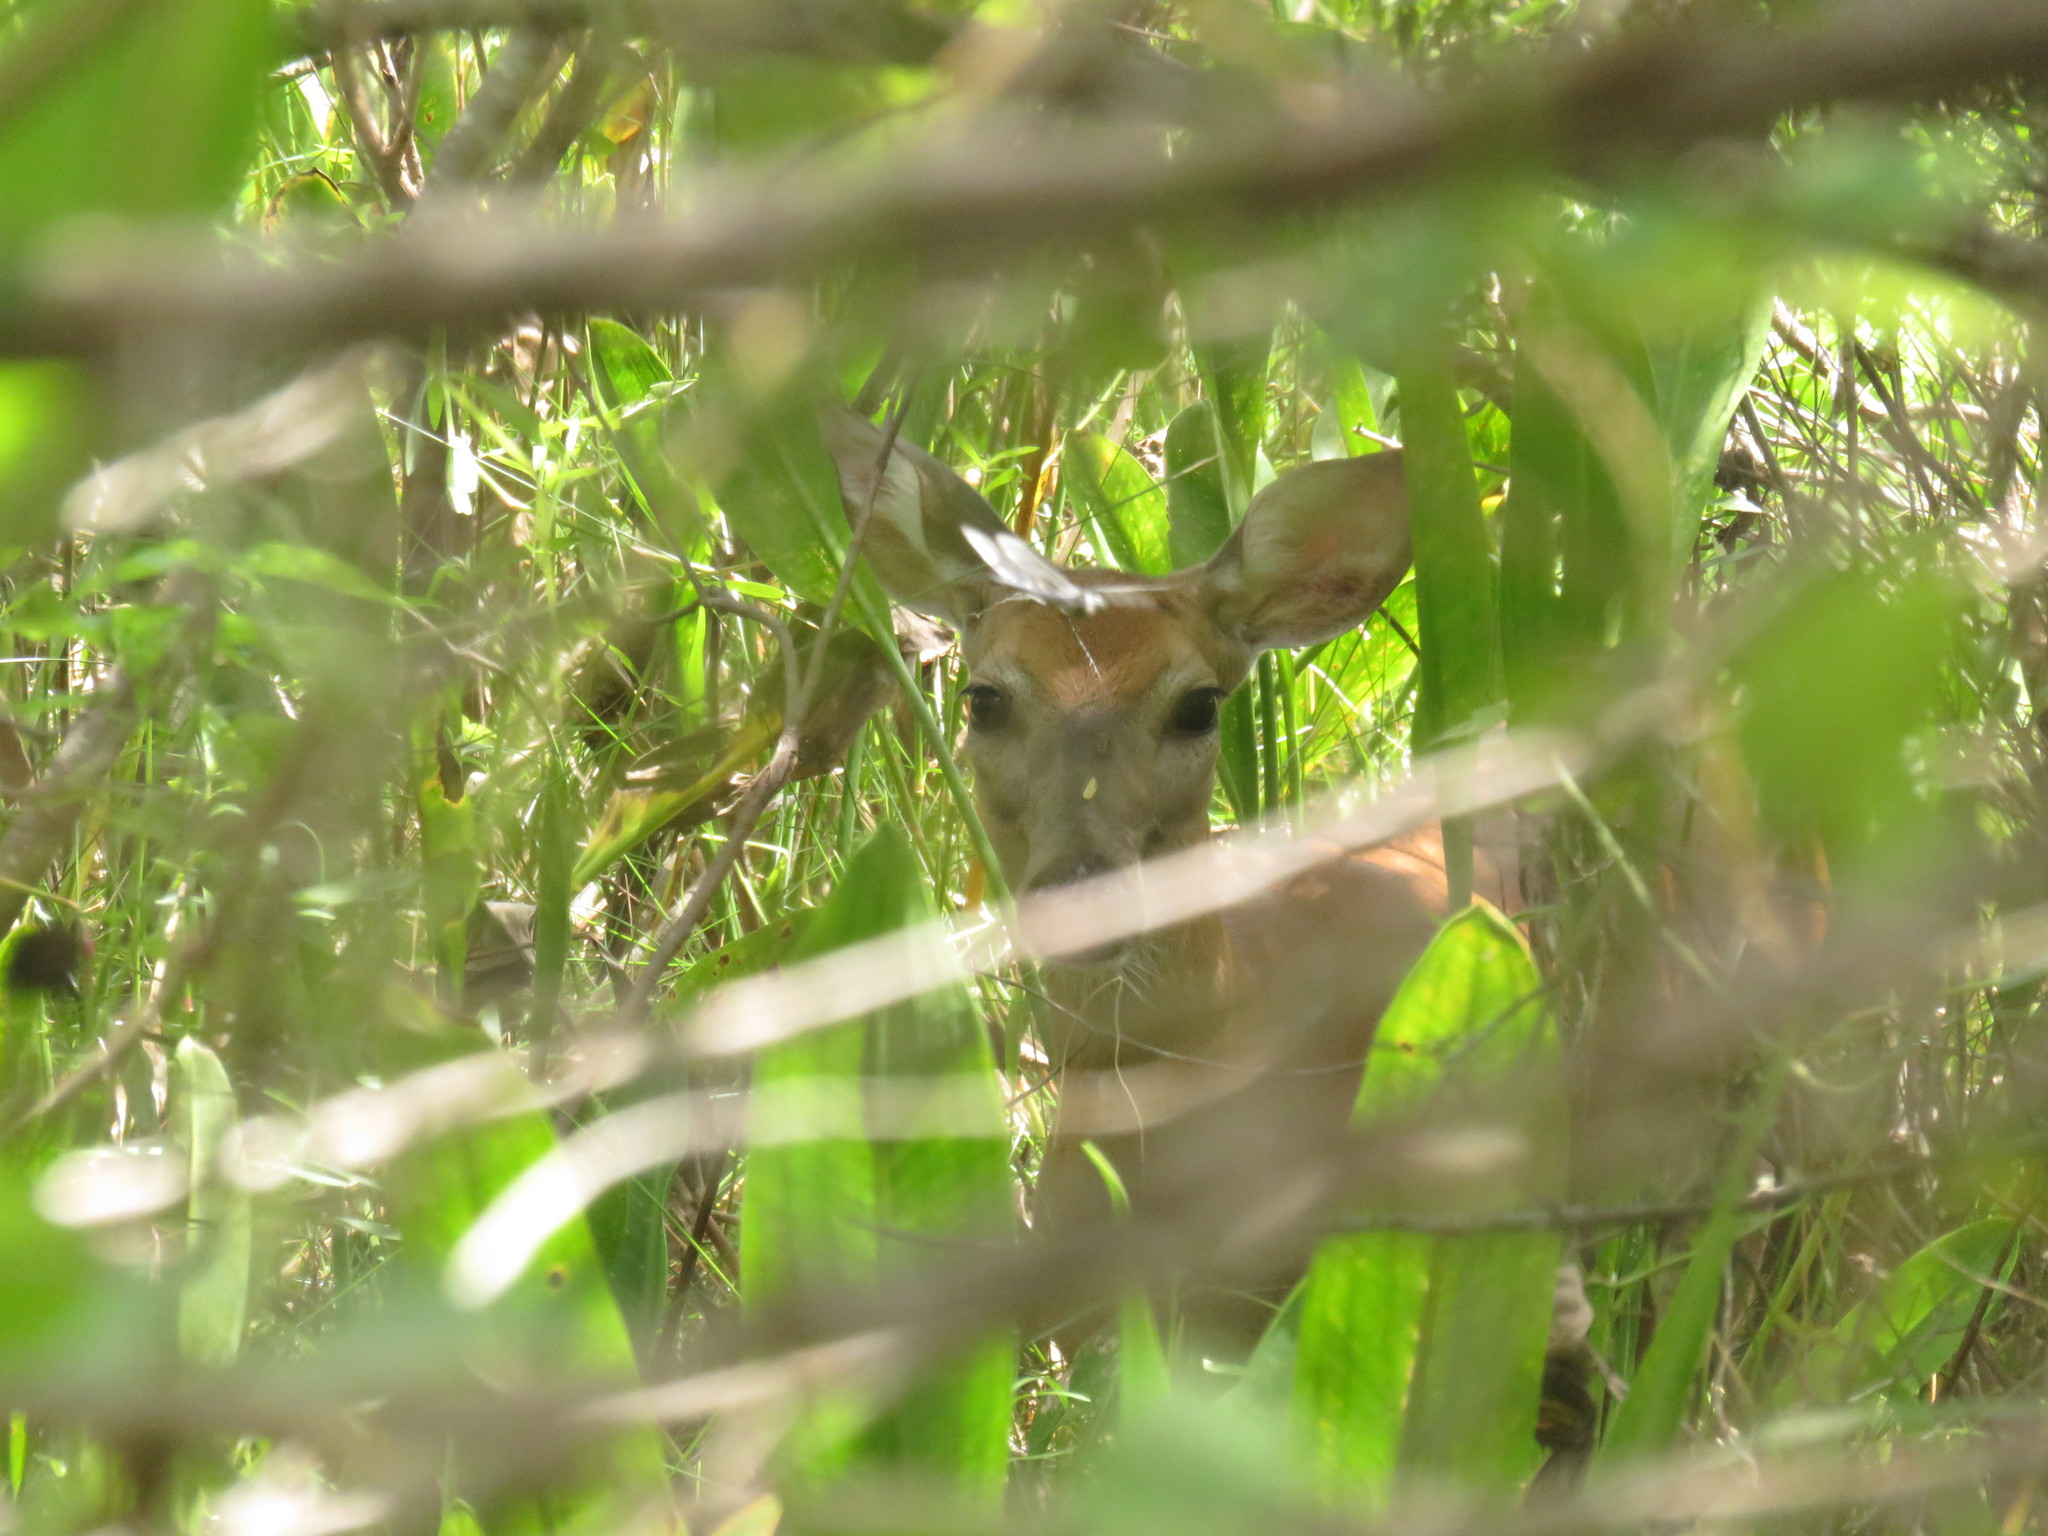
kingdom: Animalia
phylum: Chordata
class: Mammalia
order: Artiodactyla
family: Cervidae
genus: Odocoileus
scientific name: Odocoileus virginianus
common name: White-tailed deer
